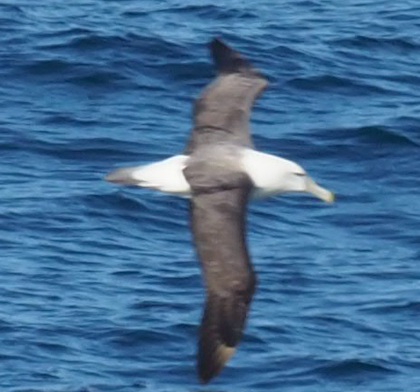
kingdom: Animalia
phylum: Chordata
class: Aves
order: Procellariiformes
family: Diomedeidae
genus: Thalassarche
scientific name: Thalassarche cauta
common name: Shy albatross
